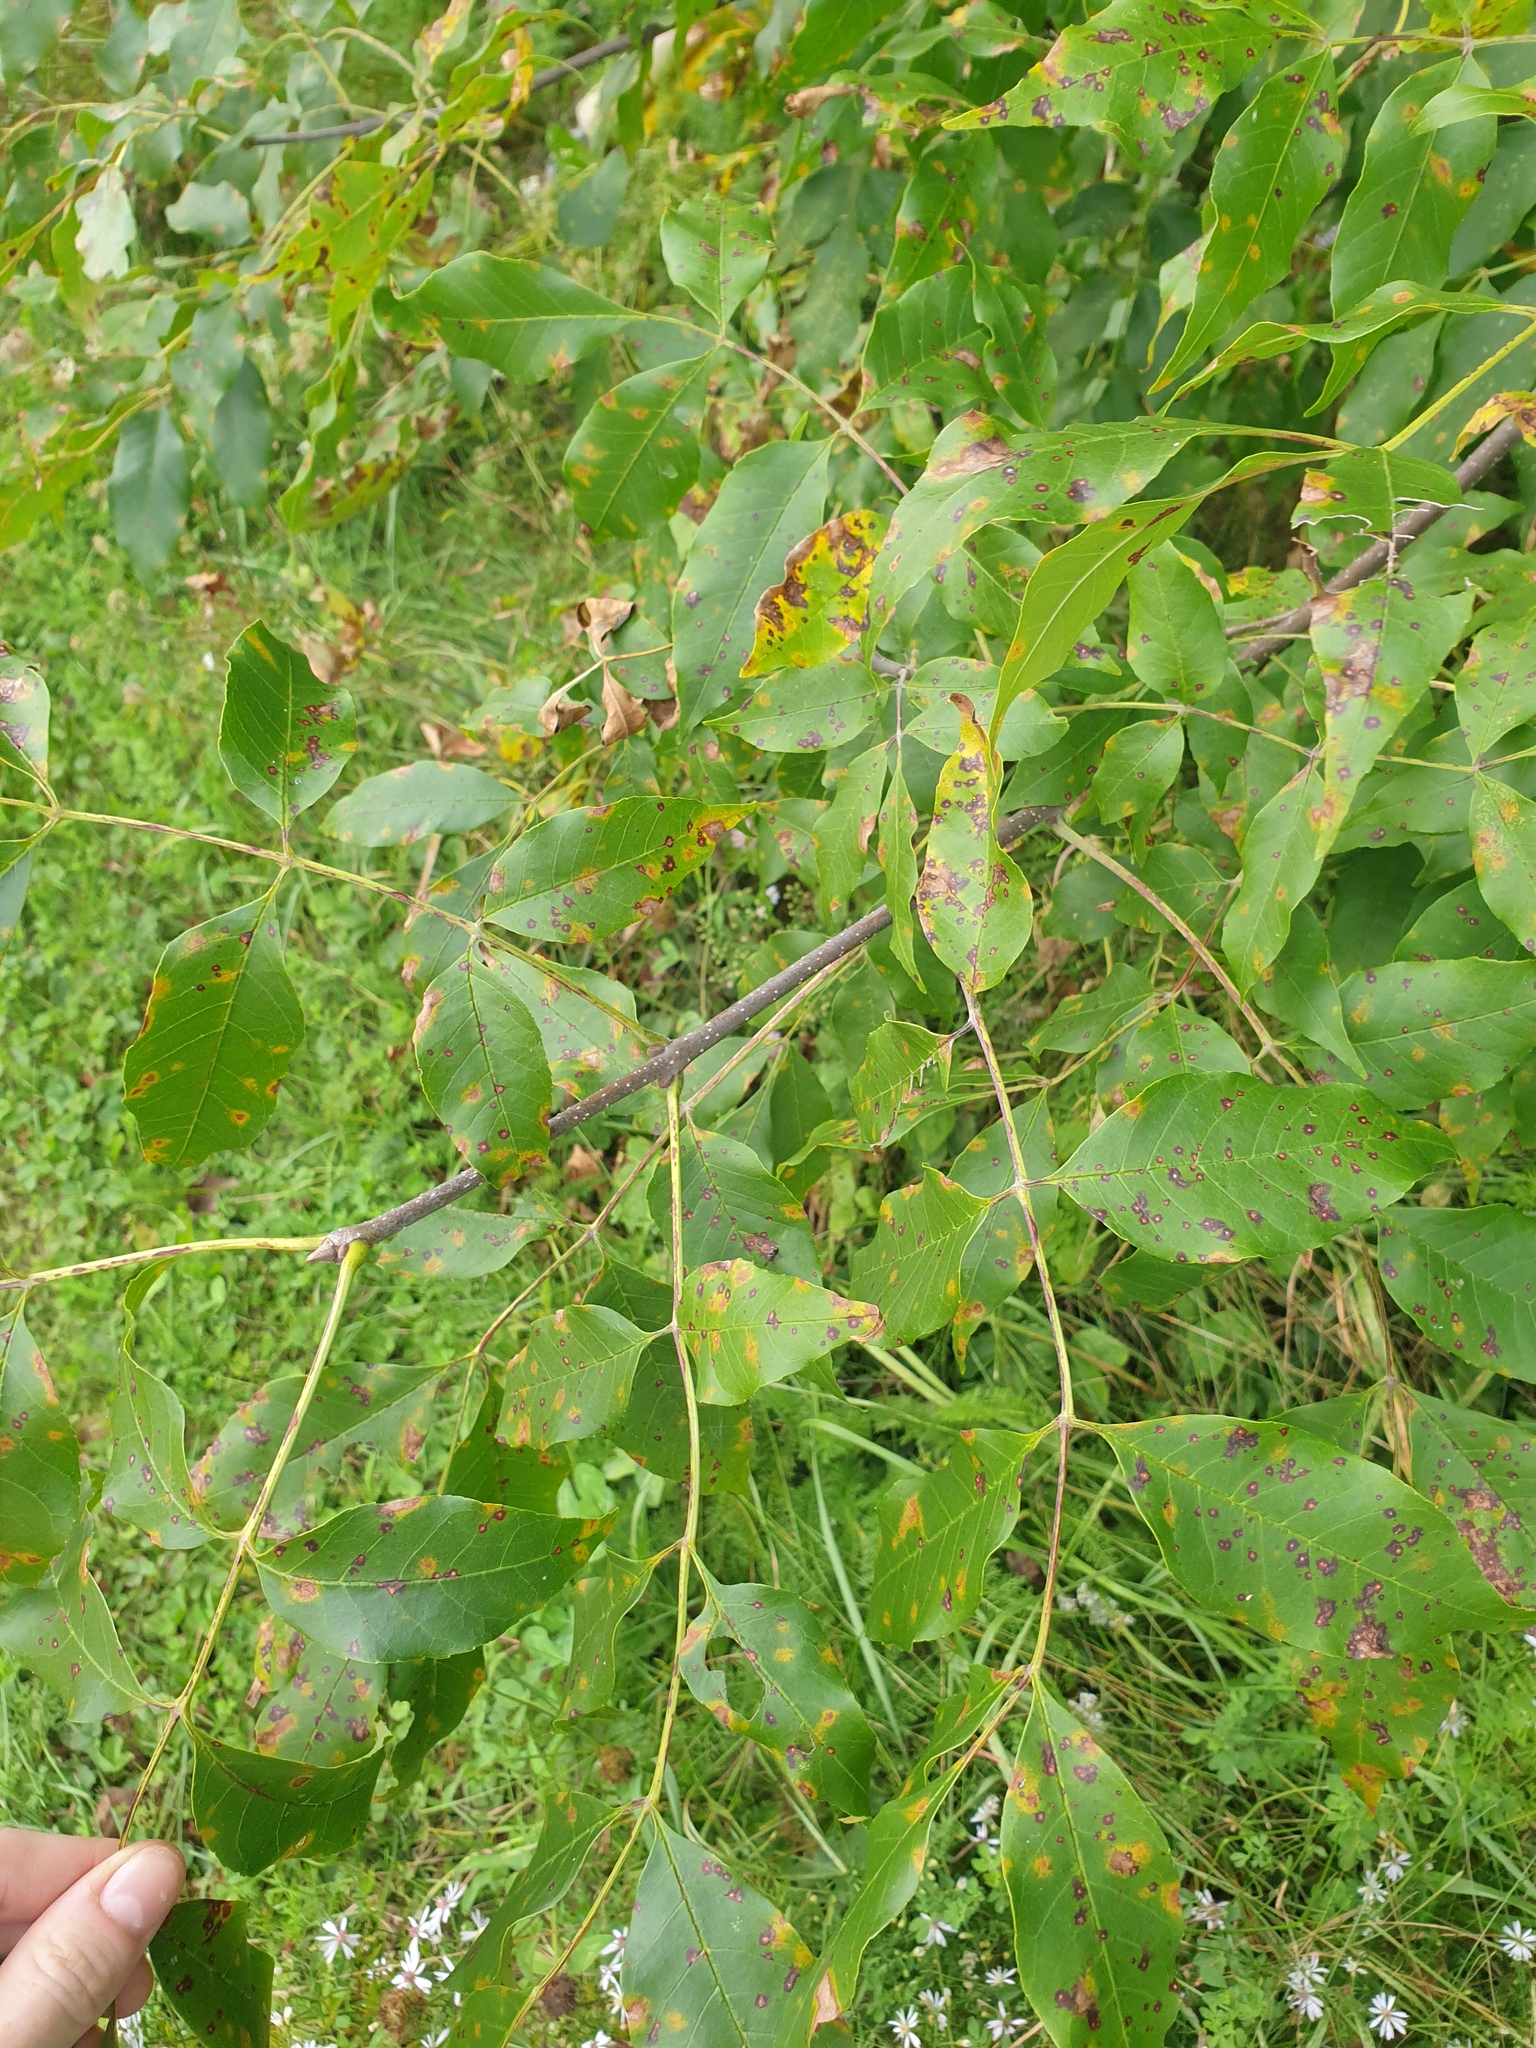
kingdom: Plantae
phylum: Tracheophyta
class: Magnoliopsida
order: Lamiales
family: Oleaceae
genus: Fraxinus
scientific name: Fraxinus pennsylvanica
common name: Green ash
